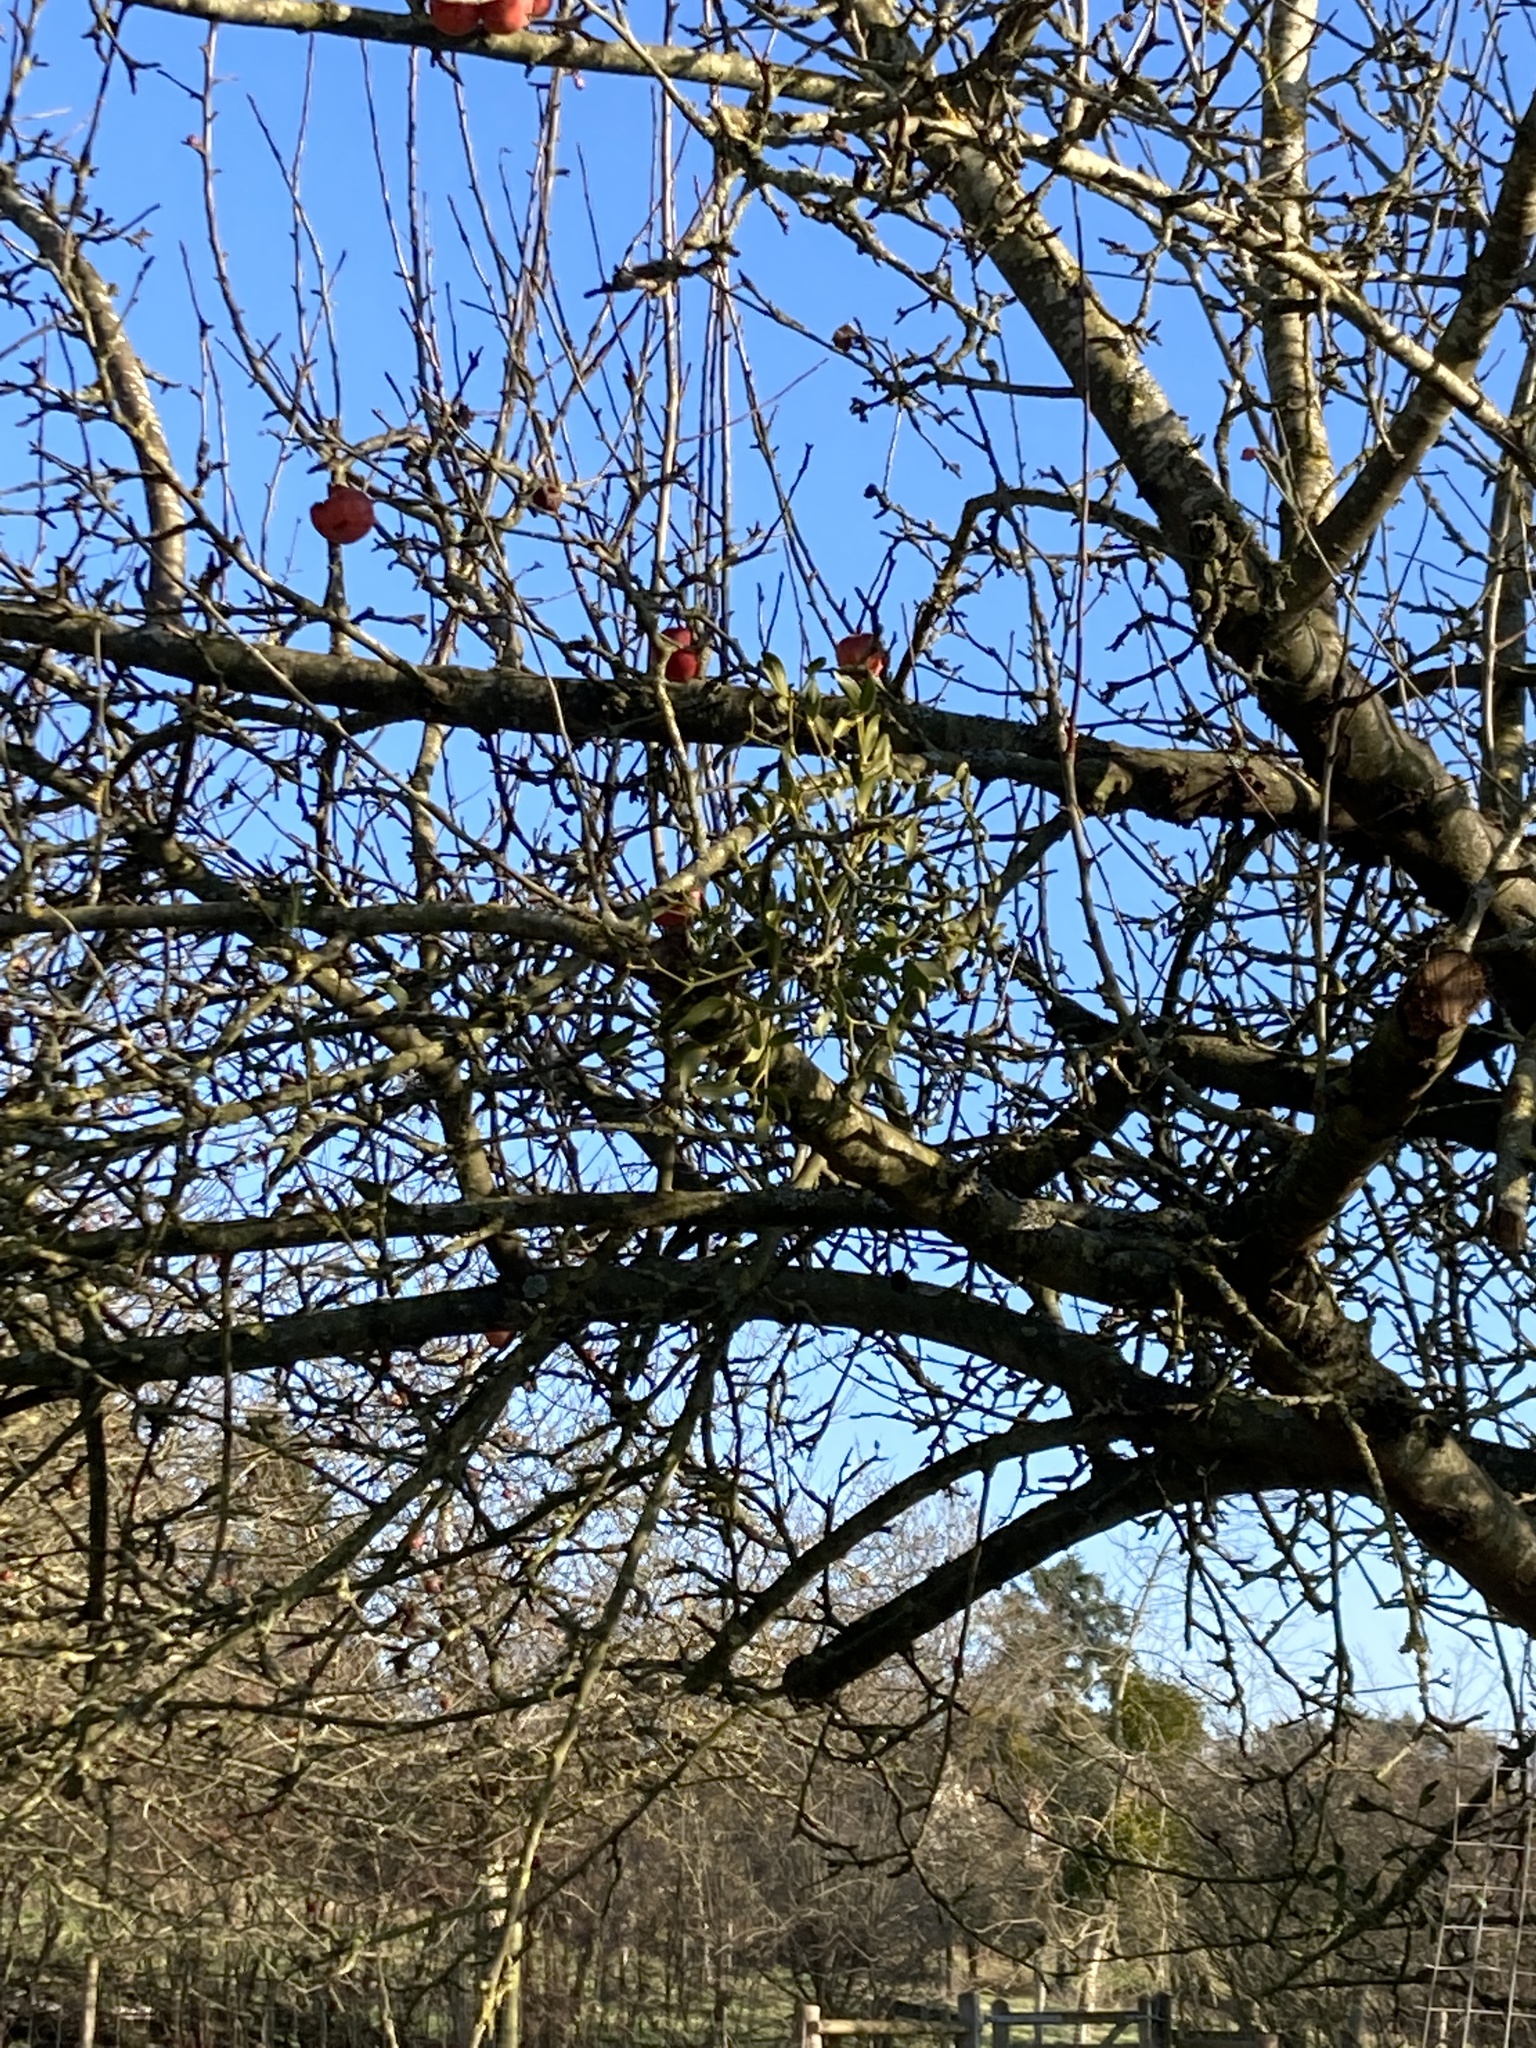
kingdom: Plantae
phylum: Tracheophyta
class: Magnoliopsida
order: Santalales
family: Viscaceae
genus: Viscum
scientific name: Viscum album
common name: Mistletoe
